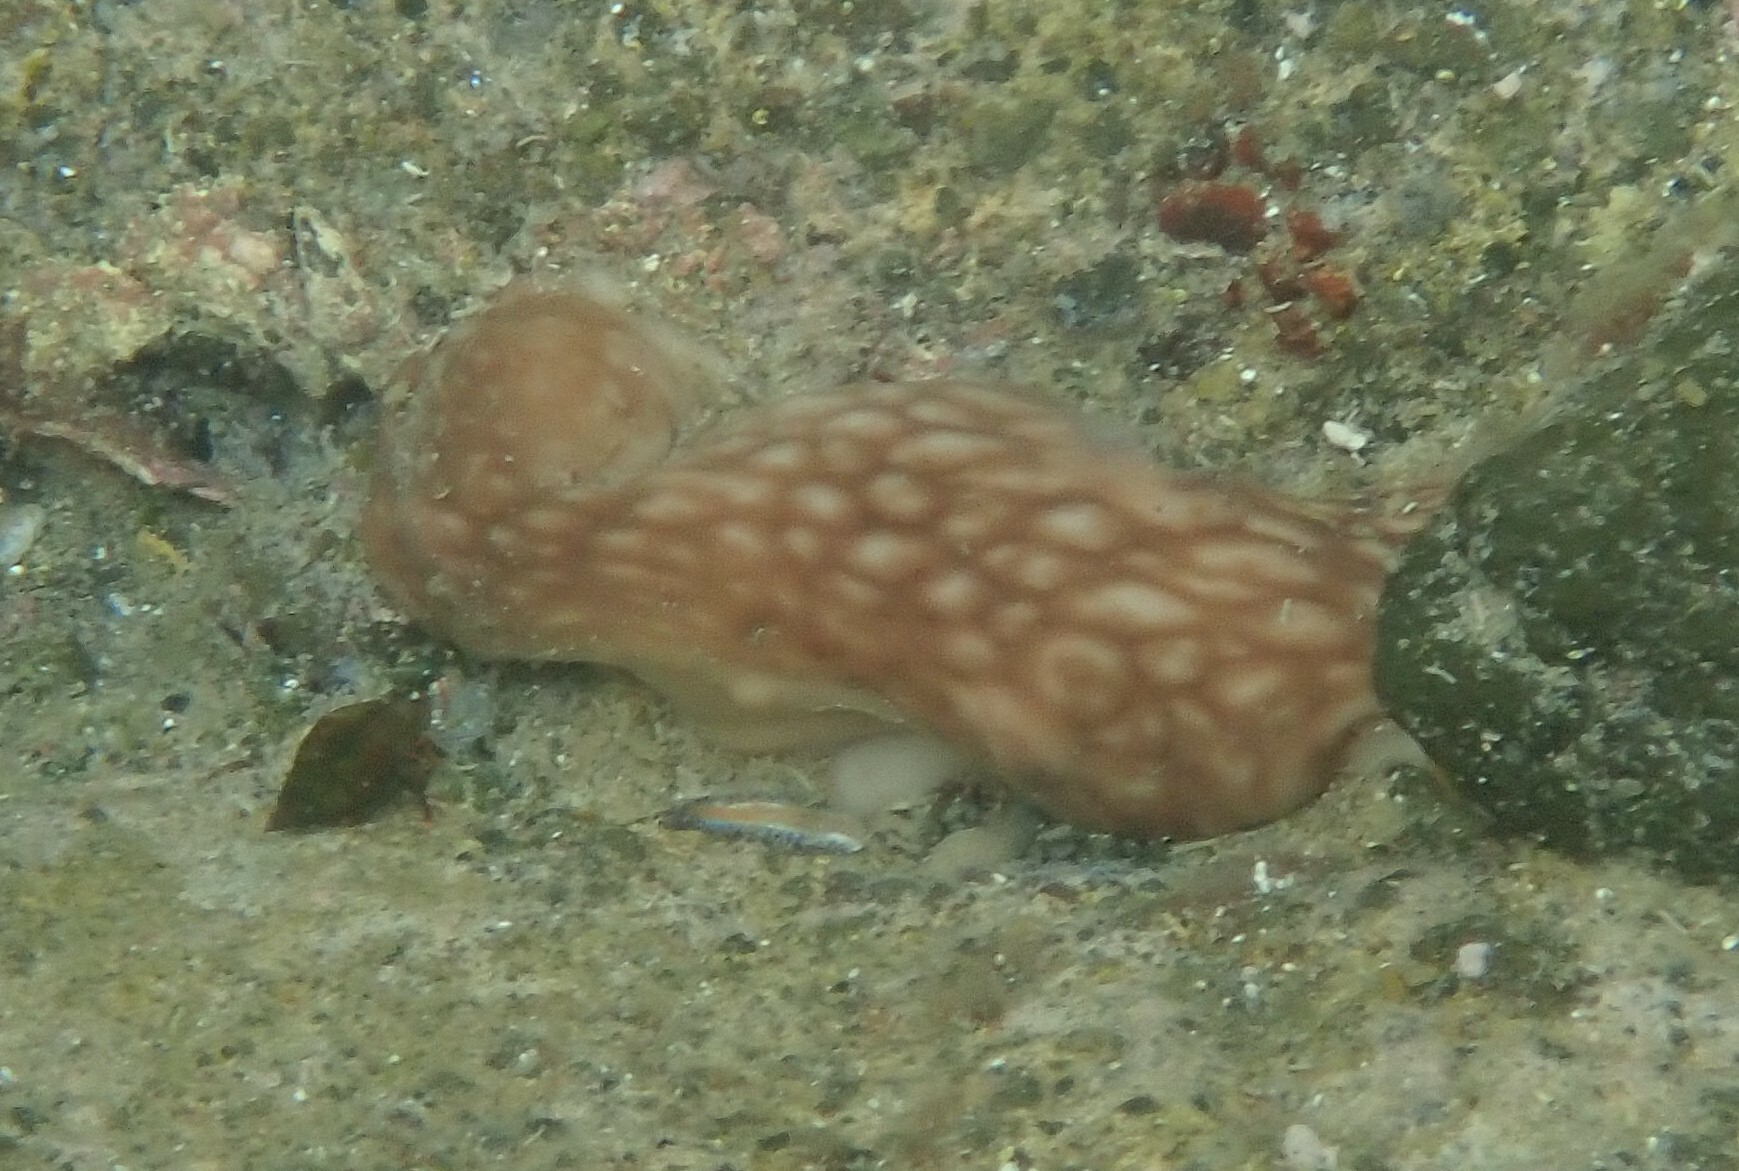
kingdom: Animalia
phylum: Porifera
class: Demospongiae
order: Chondrosiida
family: Chondrosiidae
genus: Chondrosia
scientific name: Chondrosia reniformis
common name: Chicken liver sponge
